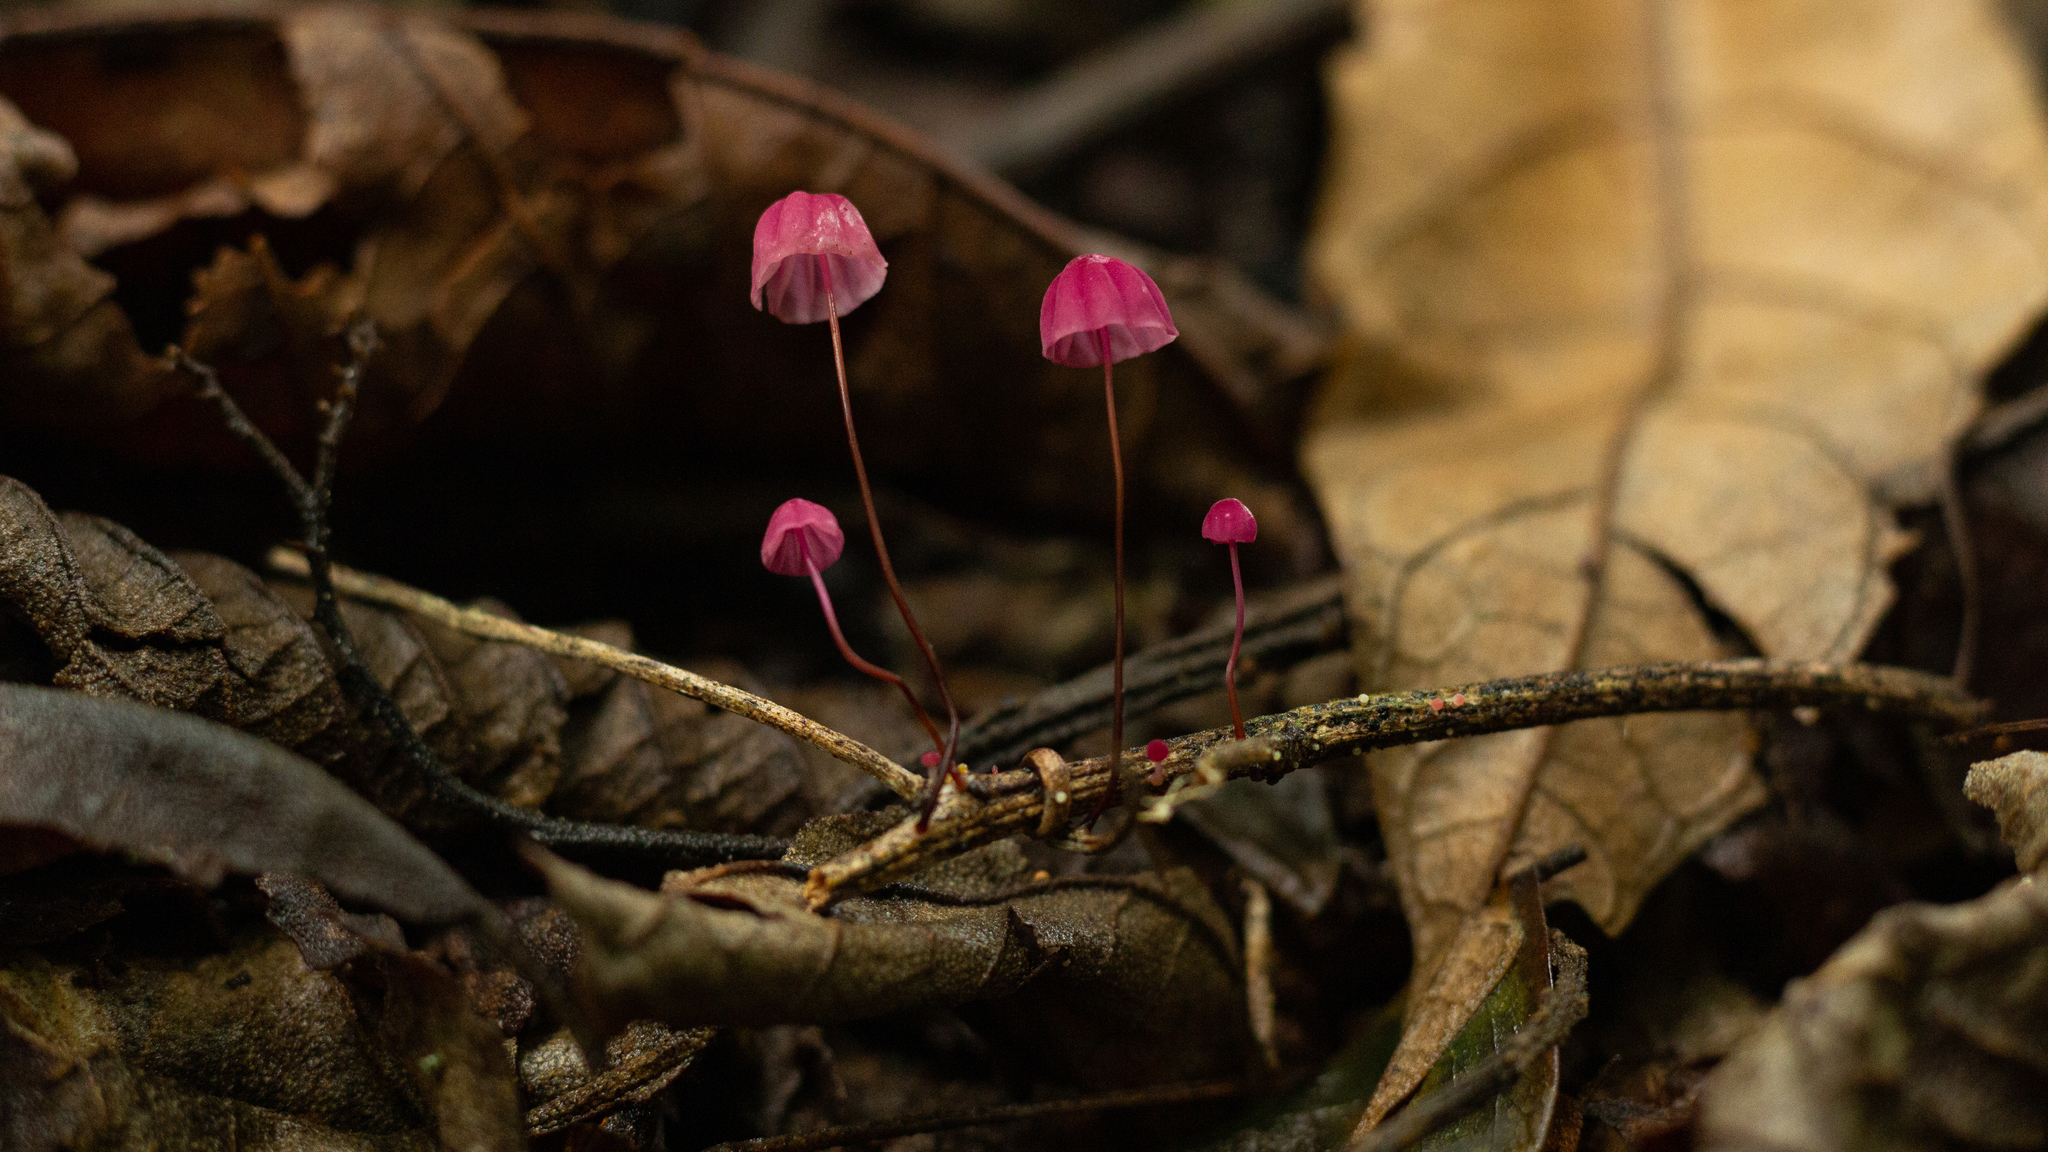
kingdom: Fungi
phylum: Basidiomycota
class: Agaricomycetes
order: Agaricales
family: Marasmiaceae
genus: Marasmius
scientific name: Marasmius haematocephalus
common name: Purple pinwheel
